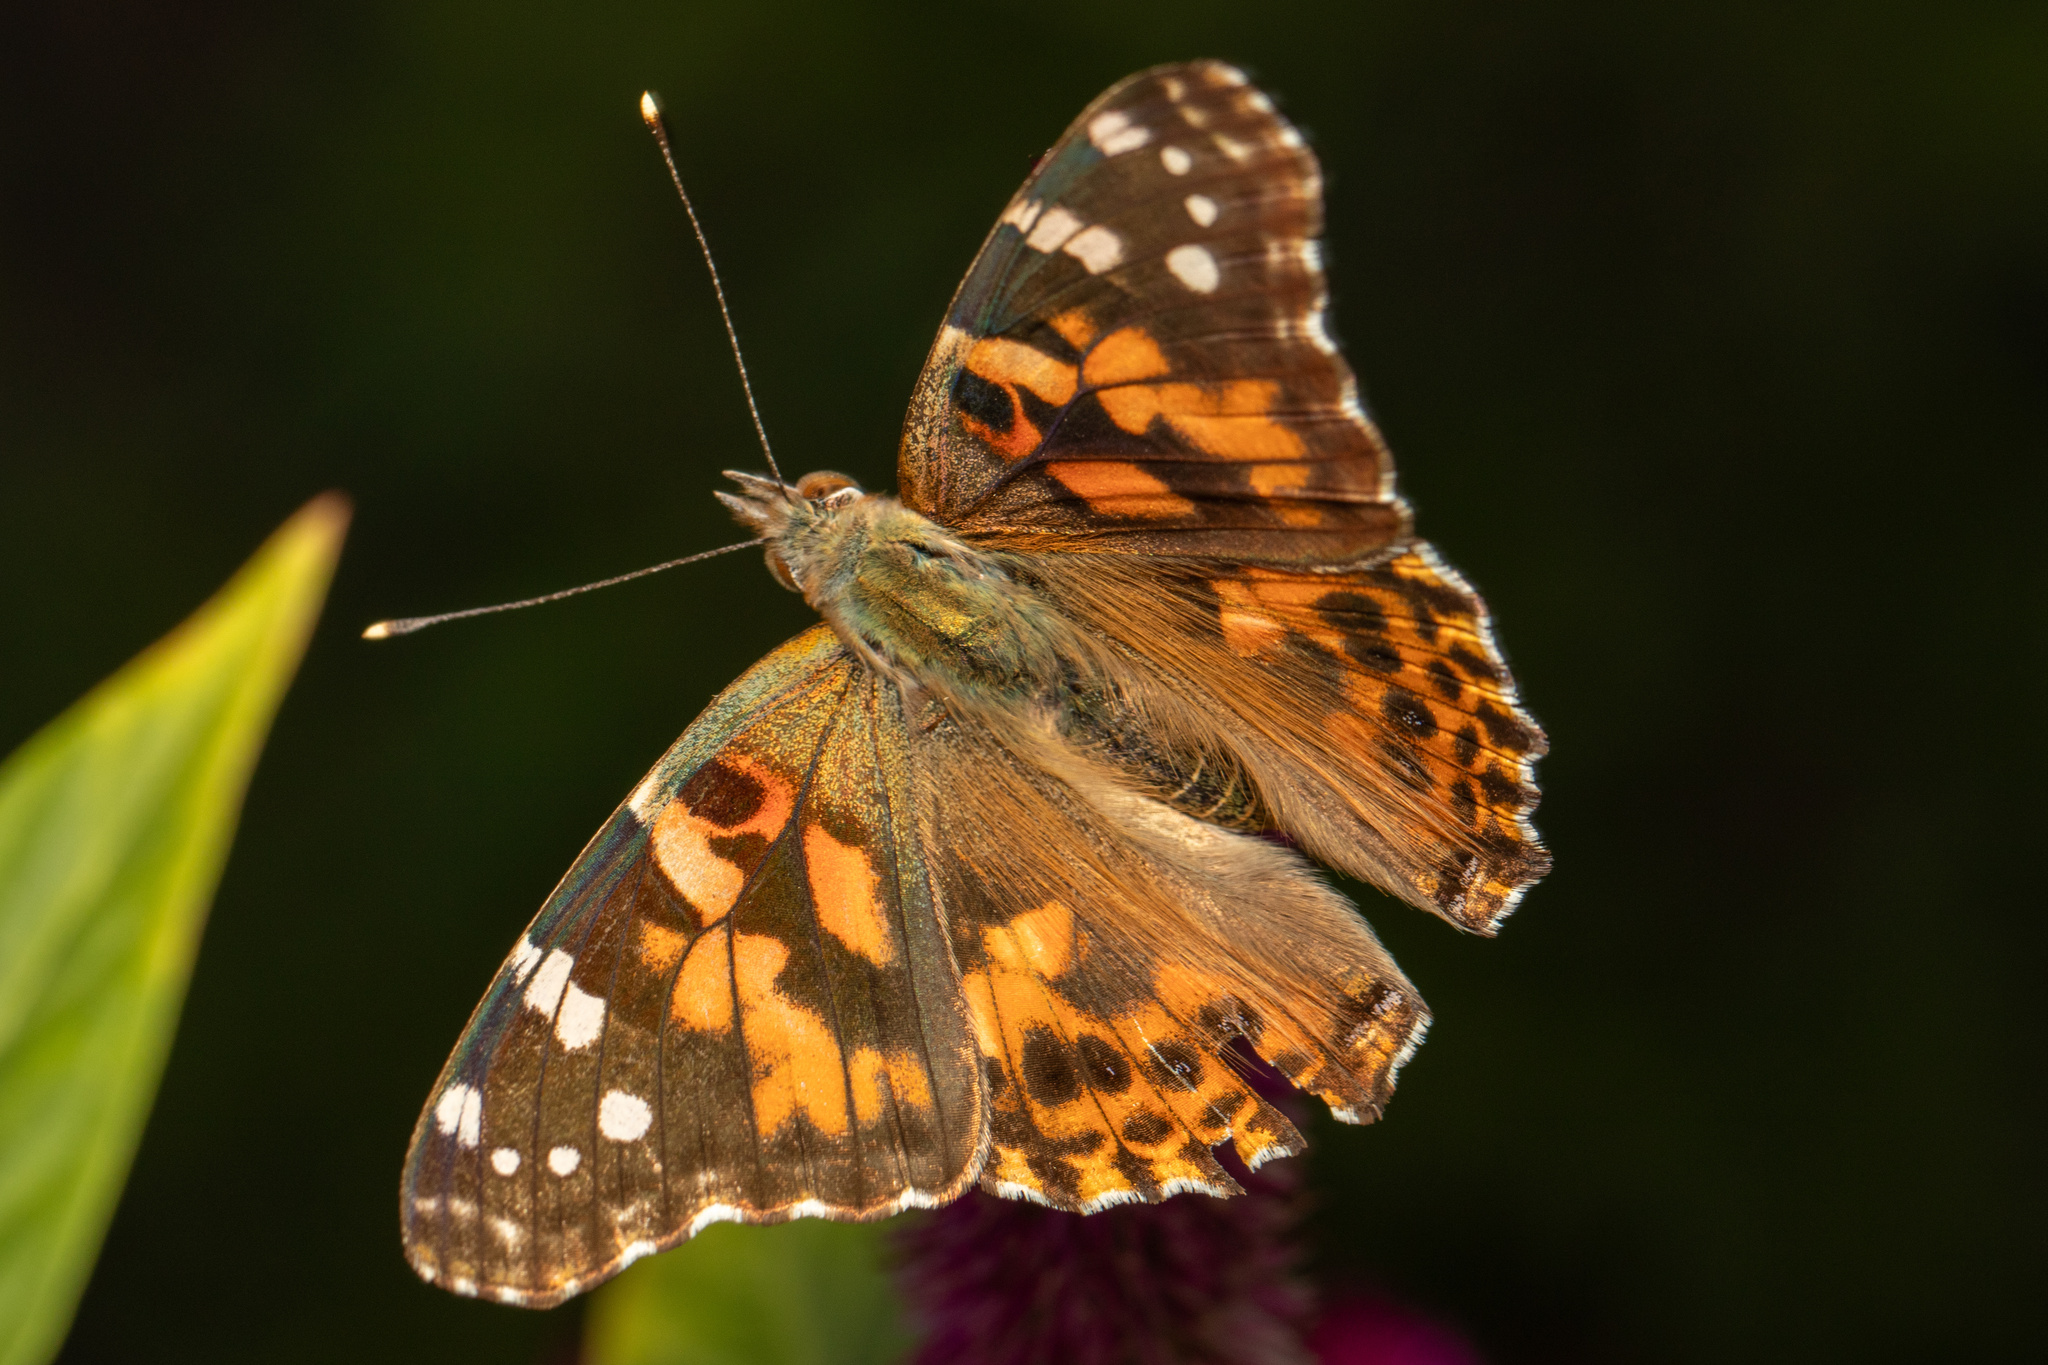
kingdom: Animalia
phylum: Arthropoda
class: Insecta
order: Lepidoptera
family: Nymphalidae
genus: Vanessa
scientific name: Vanessa cardui
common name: Painted lady
